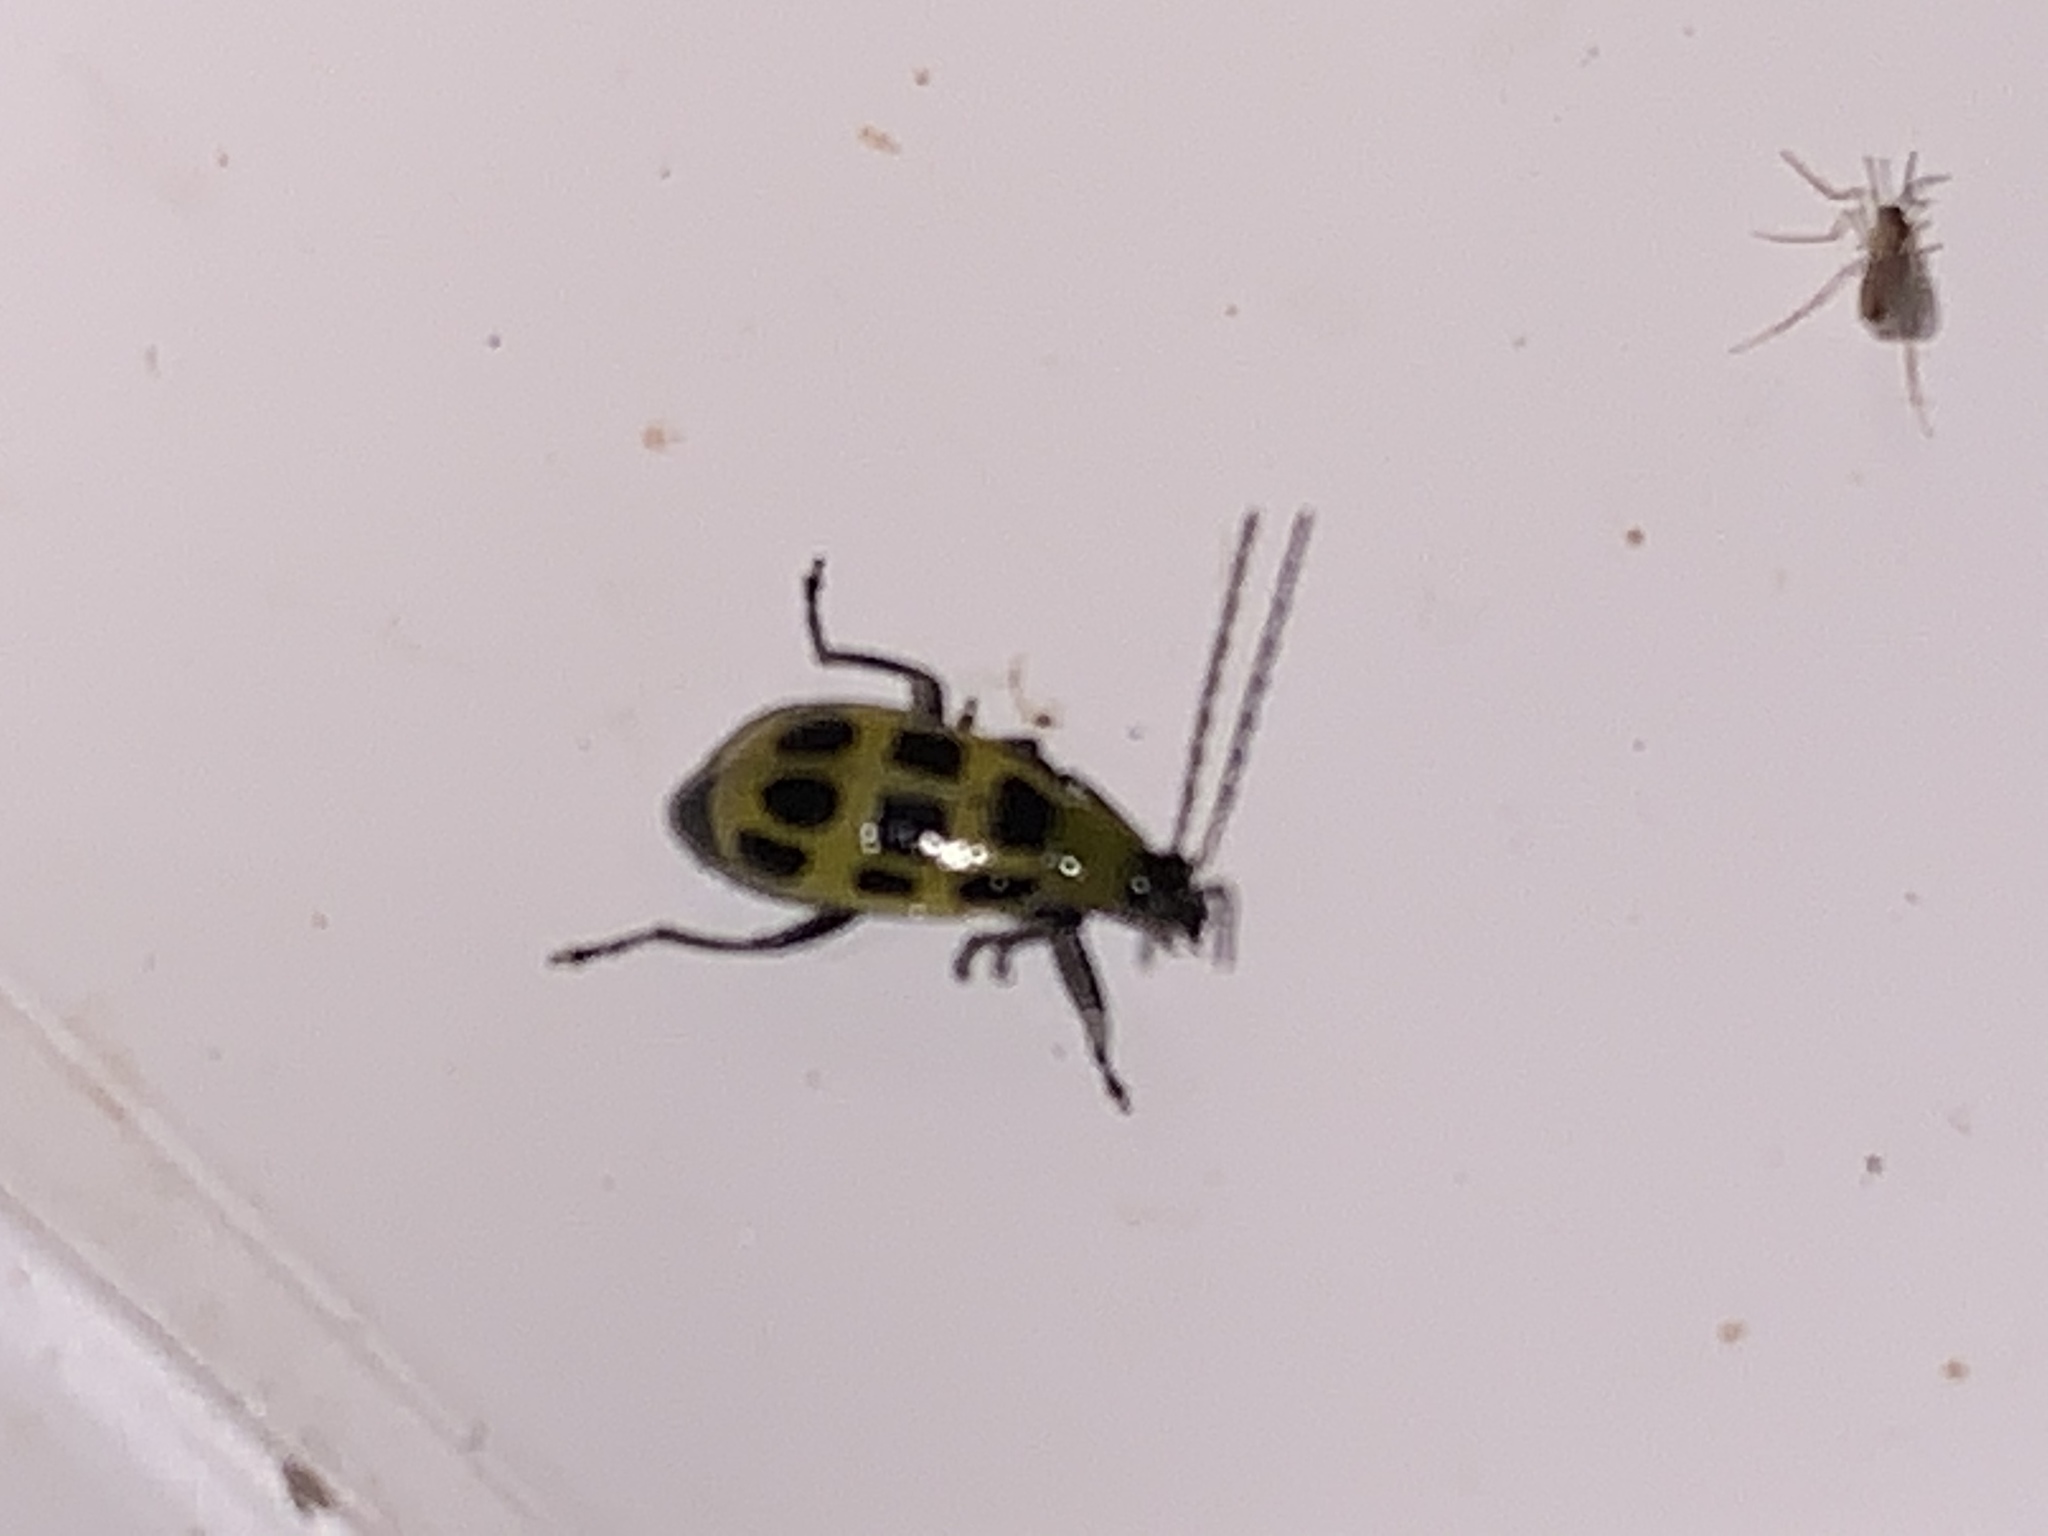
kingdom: Animalia
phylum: Arthropoda
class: Insecta
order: Coleoptera
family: Chrysomelidae
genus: Diabrotica
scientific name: Diabrotica undecimpunctata
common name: Spotted cucumber beetle
